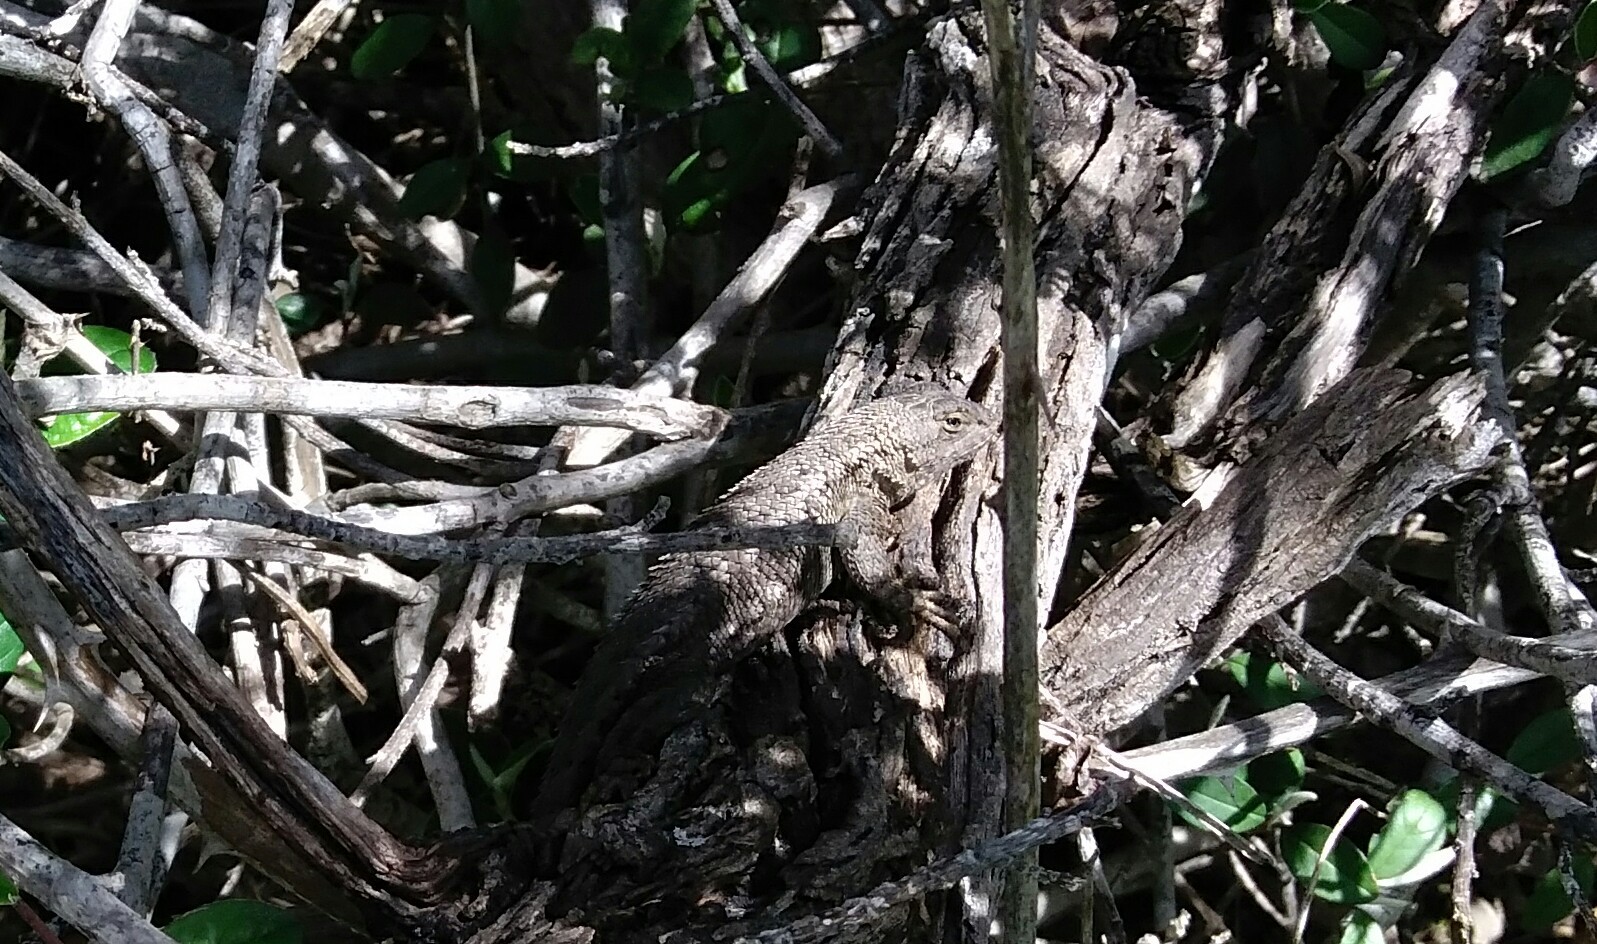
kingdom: Animalia
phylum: Chordata
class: Squamata
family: Phrynosomatidae
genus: Sceloporus
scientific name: Sceloporus occidentalis
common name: Western fence lizard
